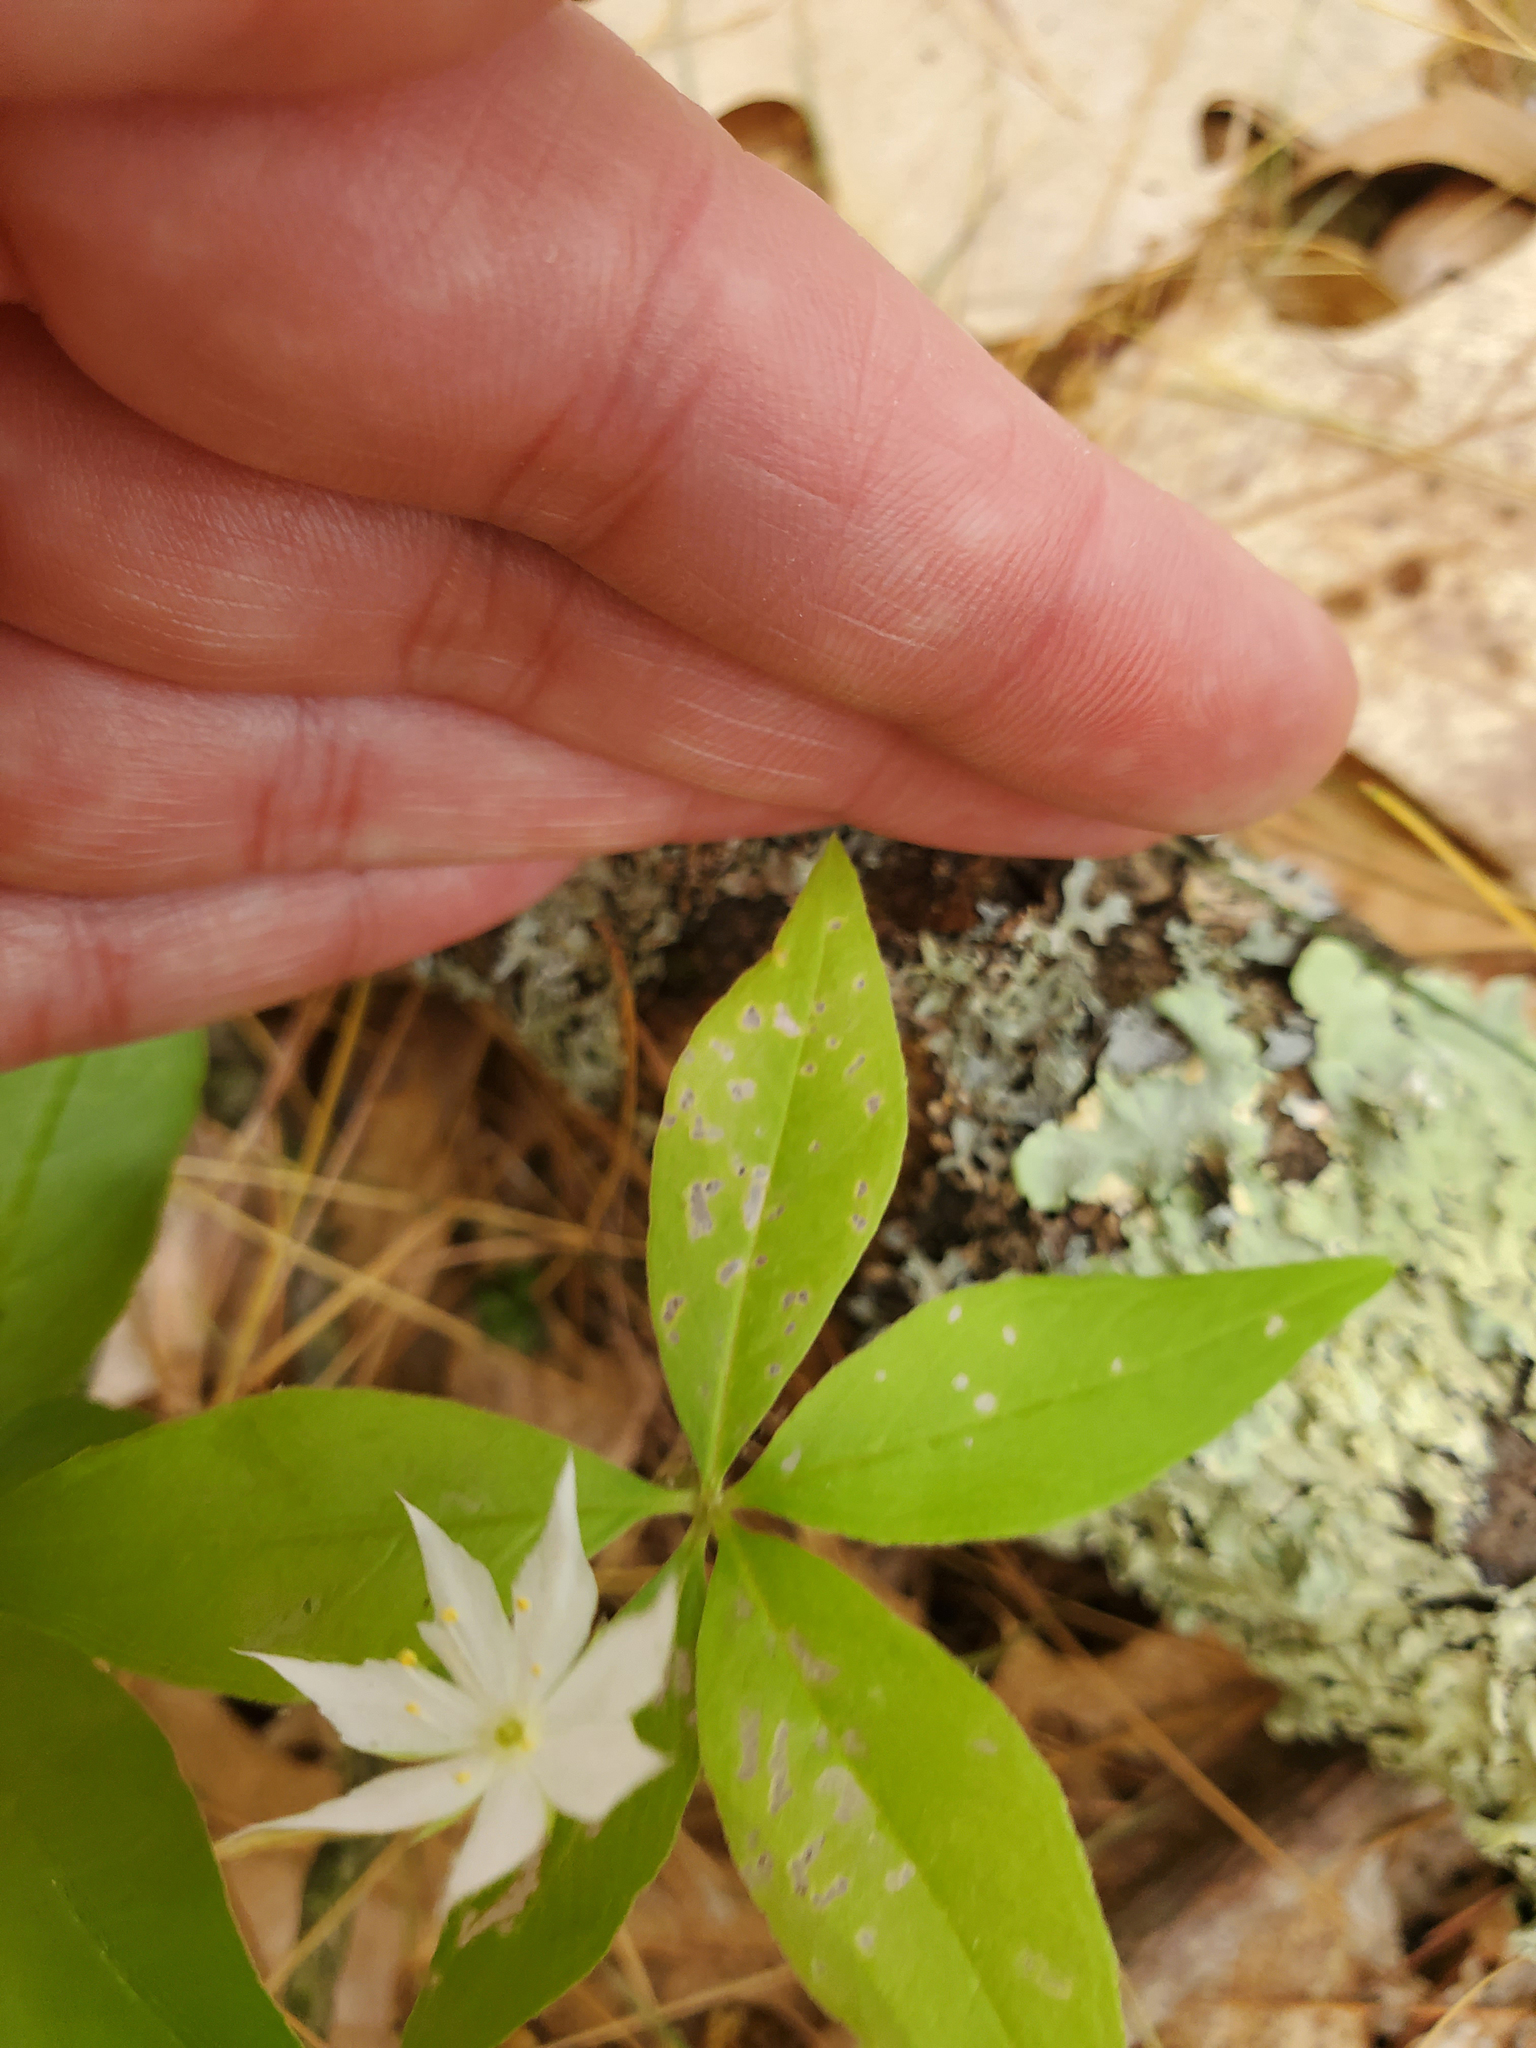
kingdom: Plantae
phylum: Tracheophyta
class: Magnoliopsida
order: Ericales
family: Primulaceae
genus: Lysimachia
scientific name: Lysimachia borealis
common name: American starflower
